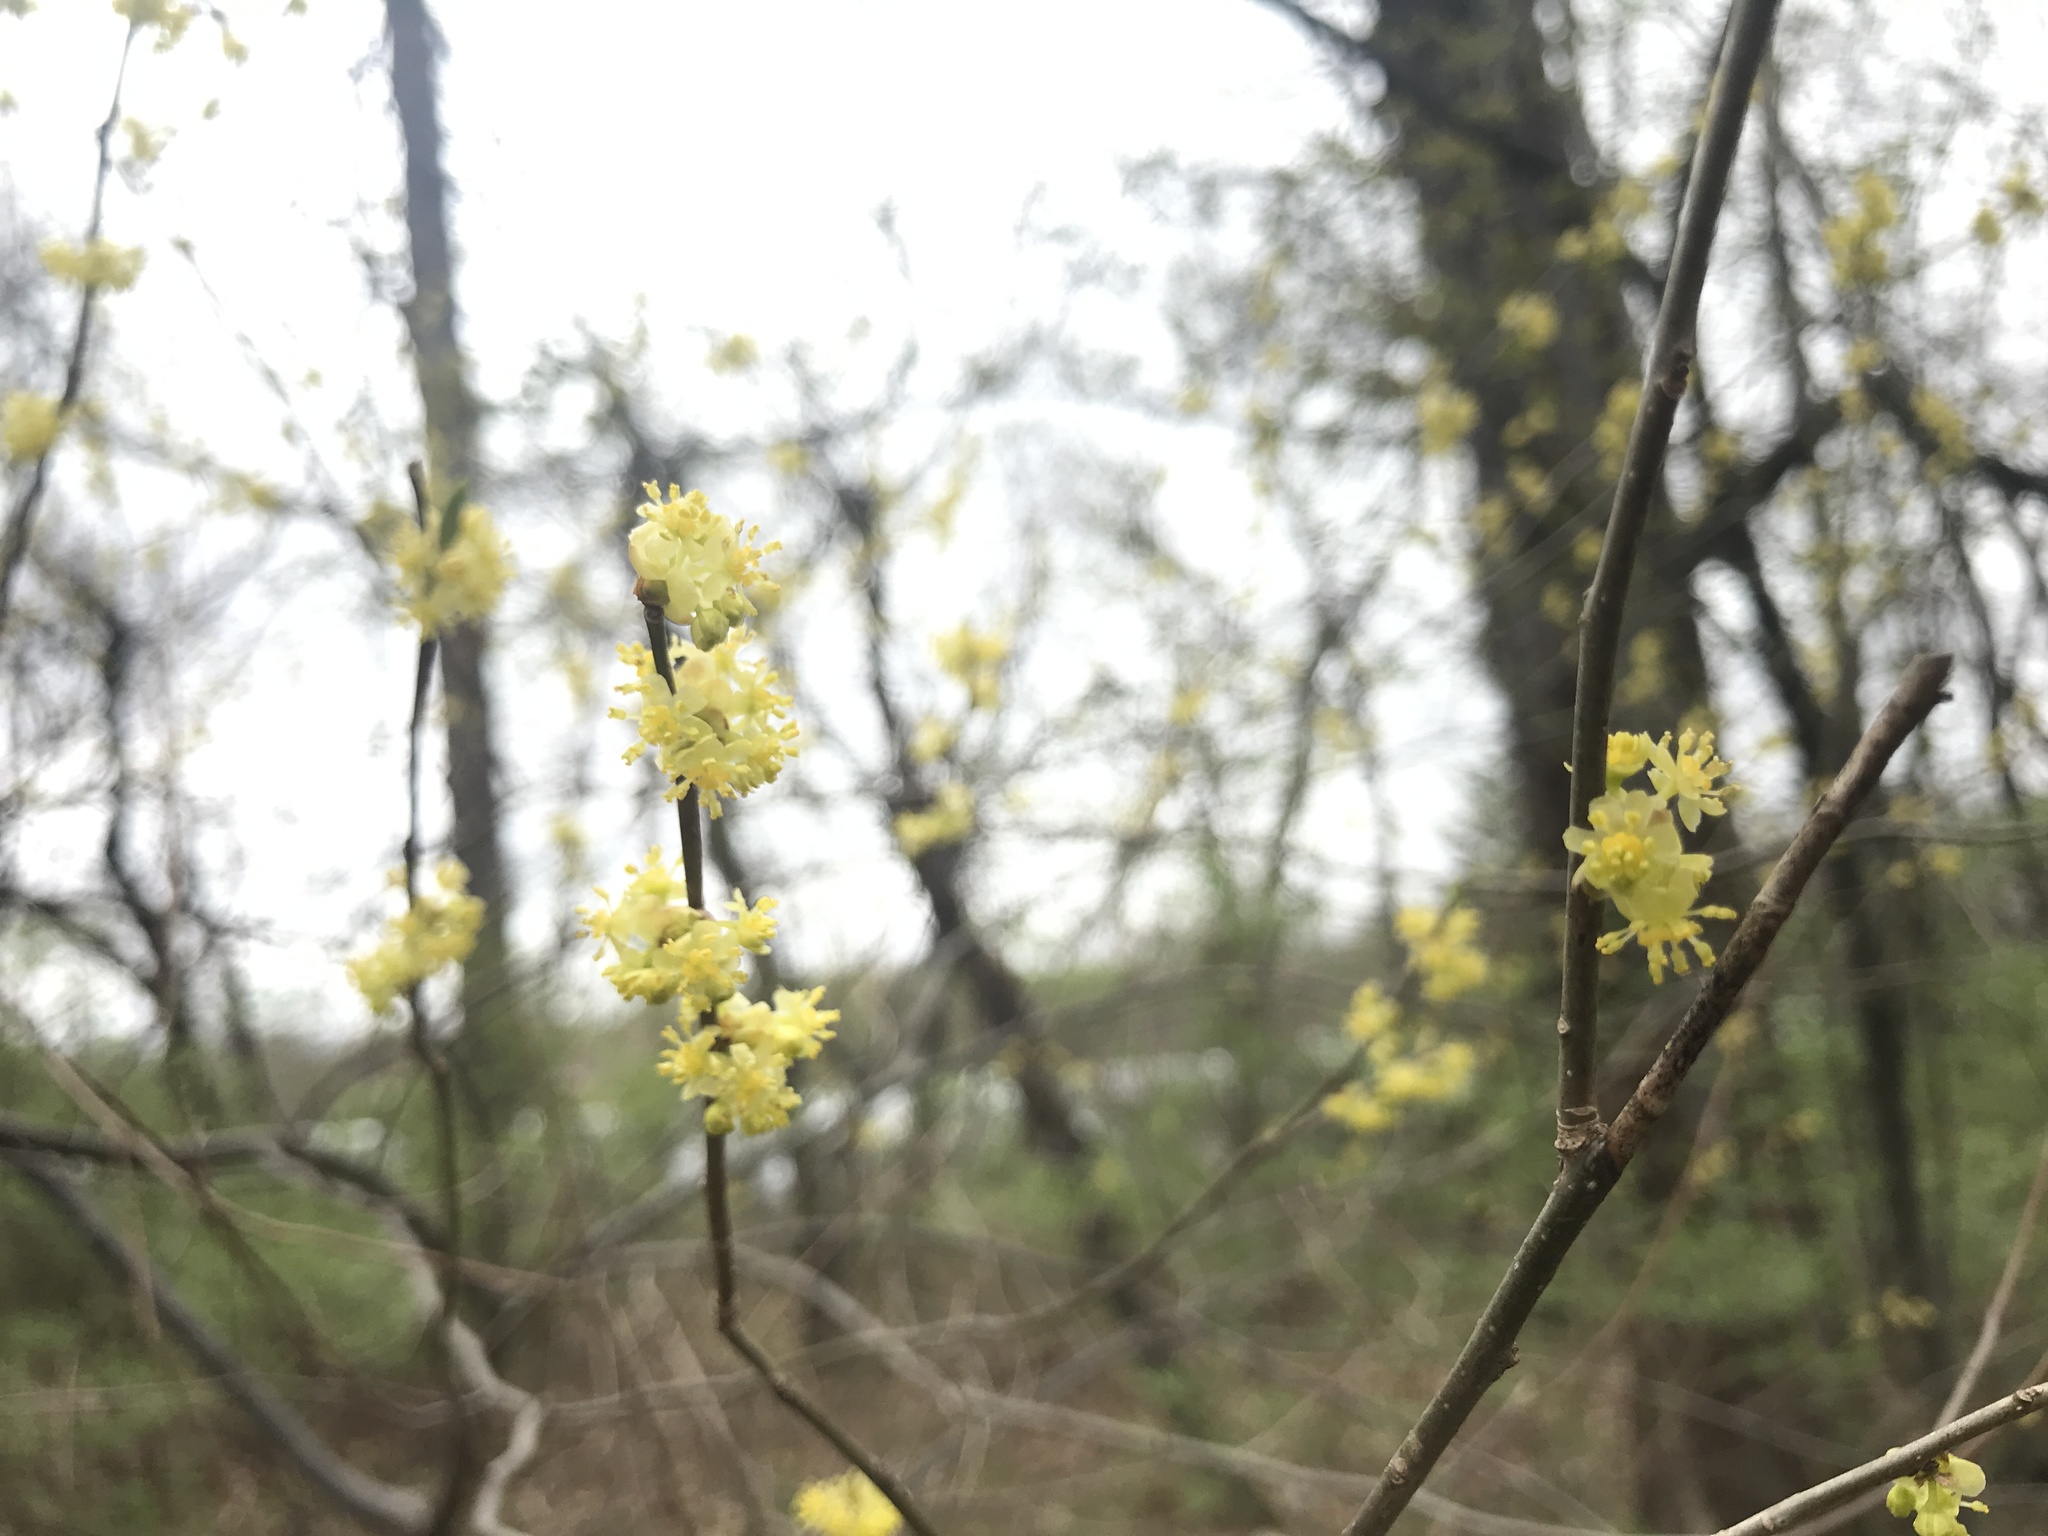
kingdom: Plantae
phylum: Tracheophyta
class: Magnoliopsida
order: Laurales
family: Lauraceae
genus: Lindera
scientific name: Lindera benzoin
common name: Spicebush
